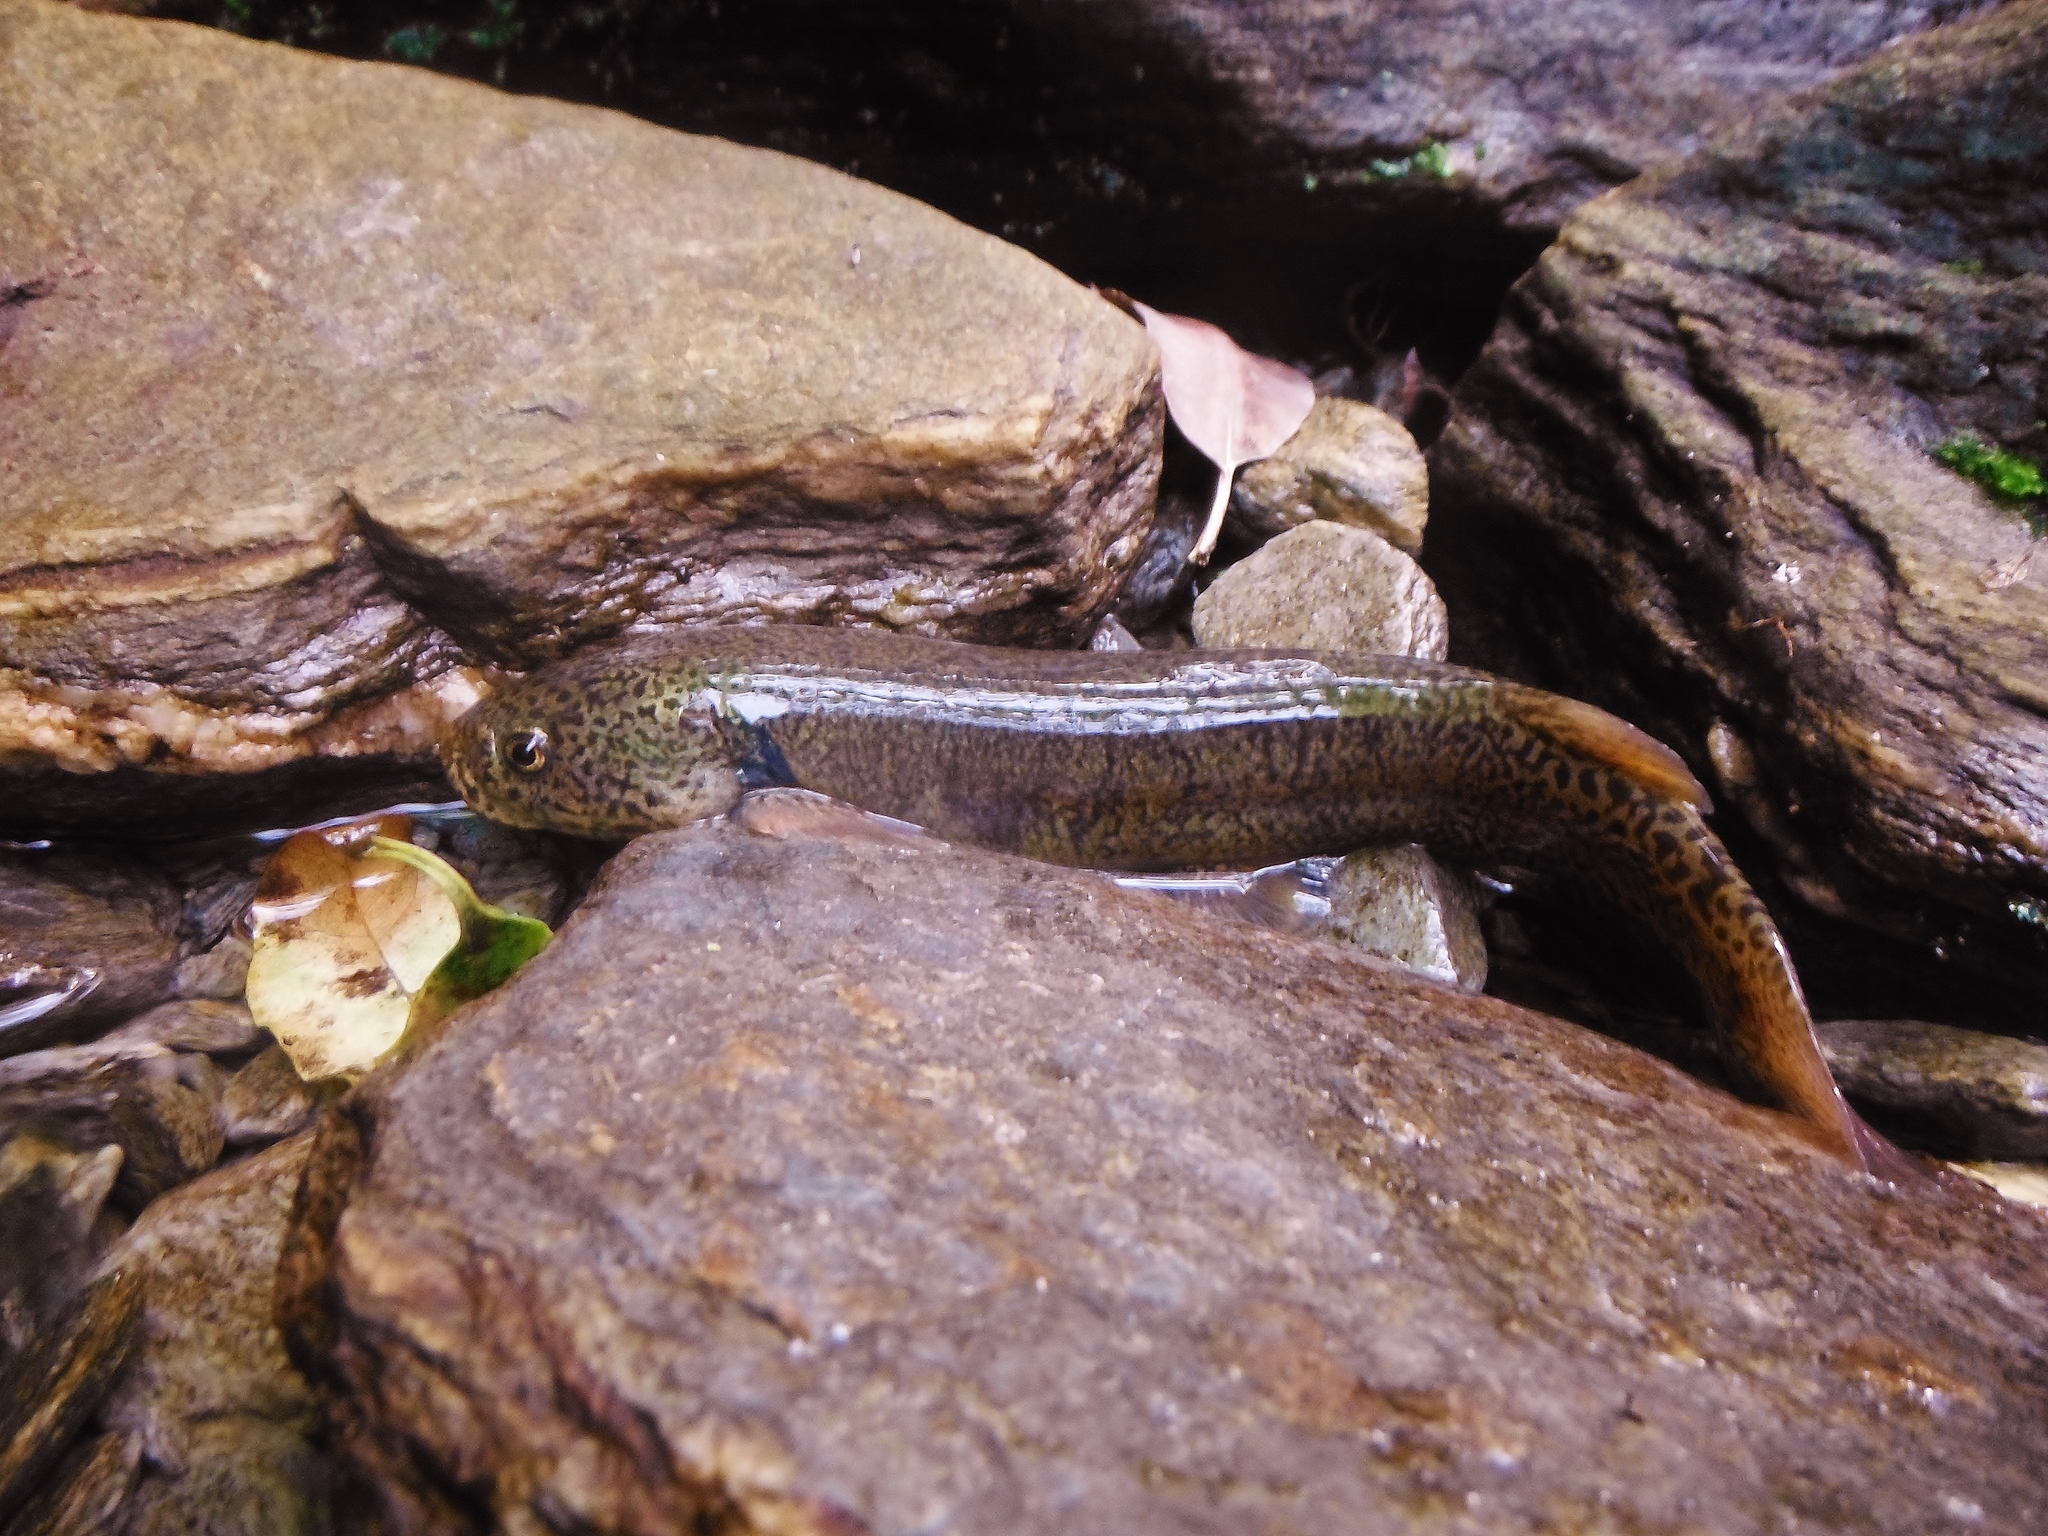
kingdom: Animalia
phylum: Chordata
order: Osmeriformes
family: Galaxiidae
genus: Galaxias
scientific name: Galaxias brevipinnis
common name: Koaro
